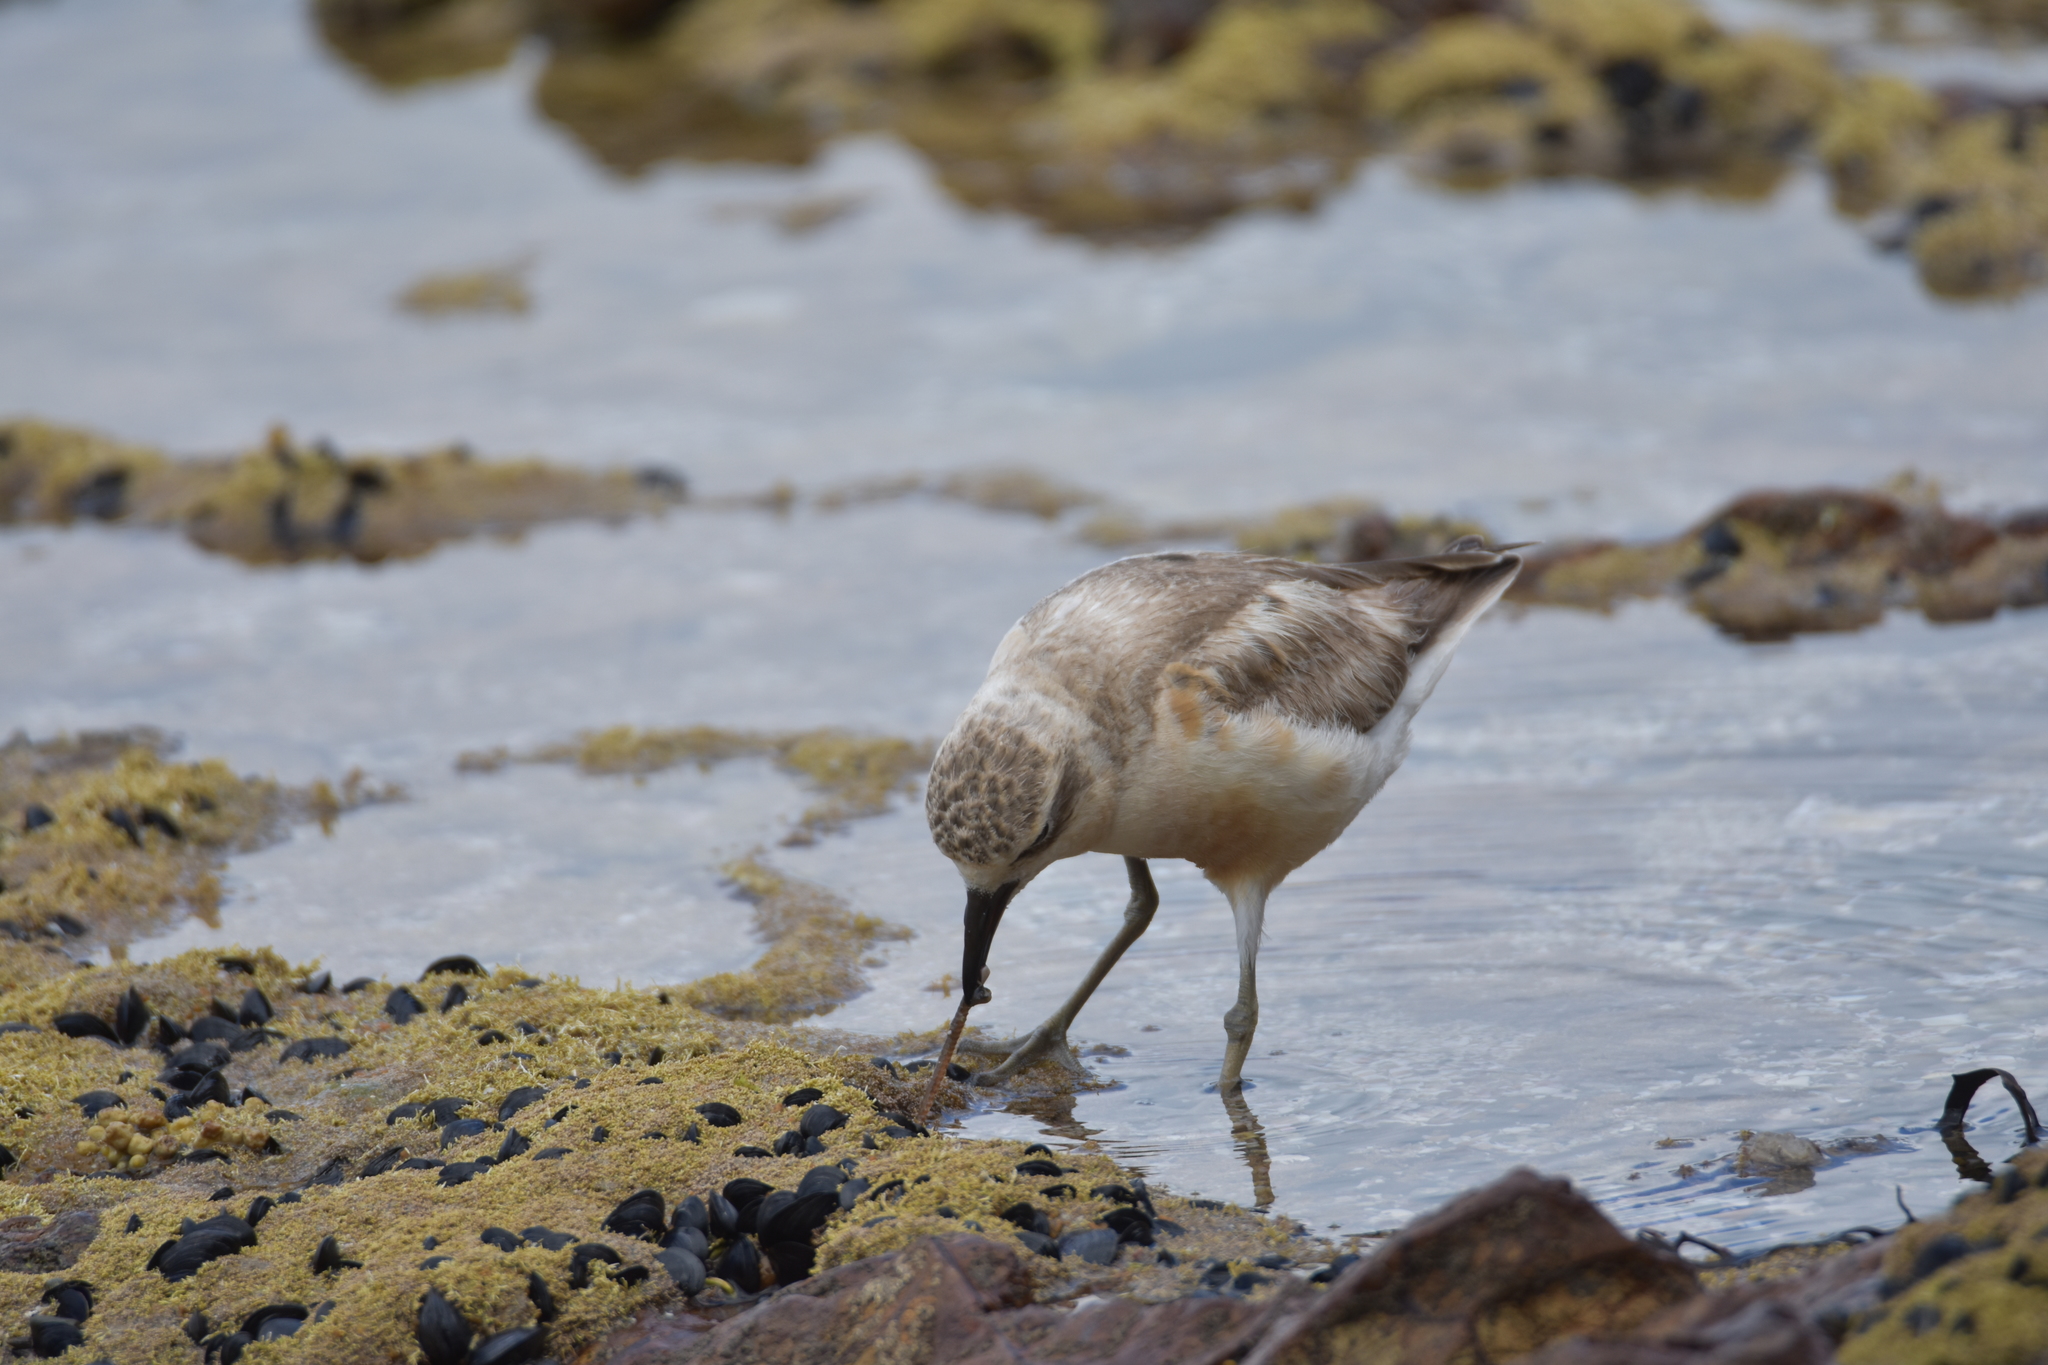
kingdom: Animalia
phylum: Chordata
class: Aves
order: Charadriiformes
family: Charadriidae
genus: Anarhynchus
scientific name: Anarhynchus
